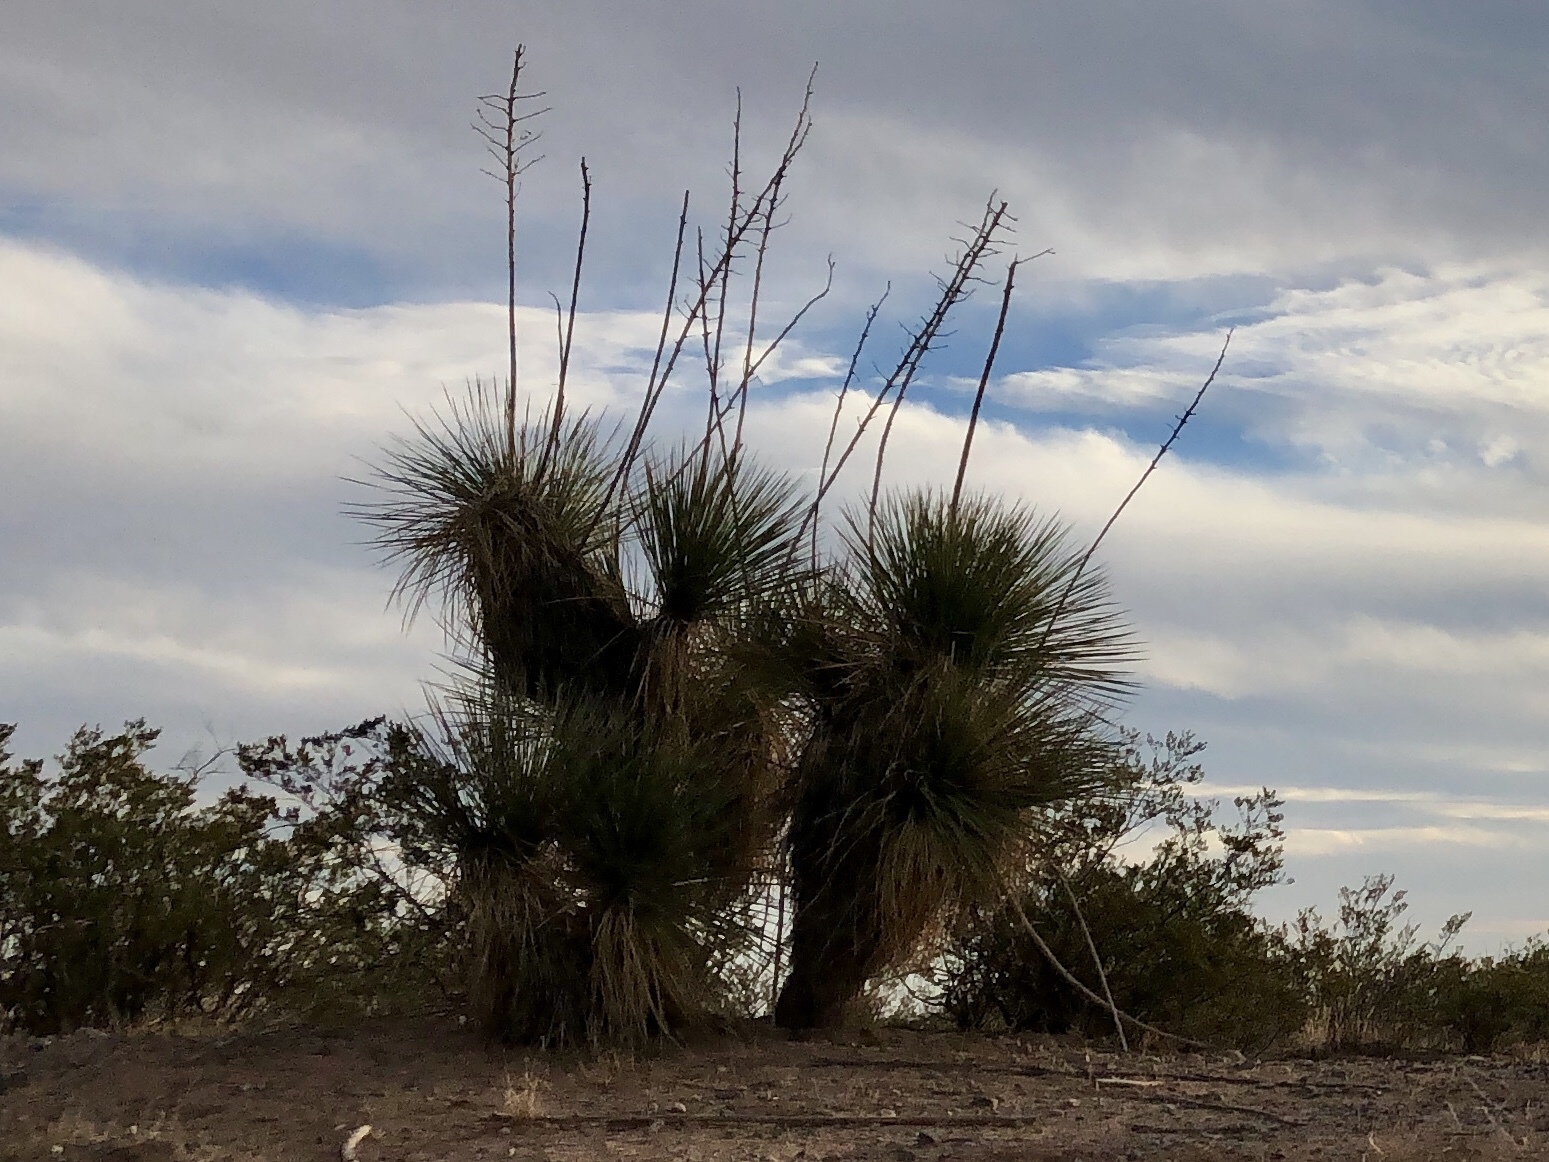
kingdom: Plantae
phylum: Tracheophyta
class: Liliopsida
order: Asparagales
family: Asparagaceae
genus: Yucca
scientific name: Yucca elata
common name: Palmella
